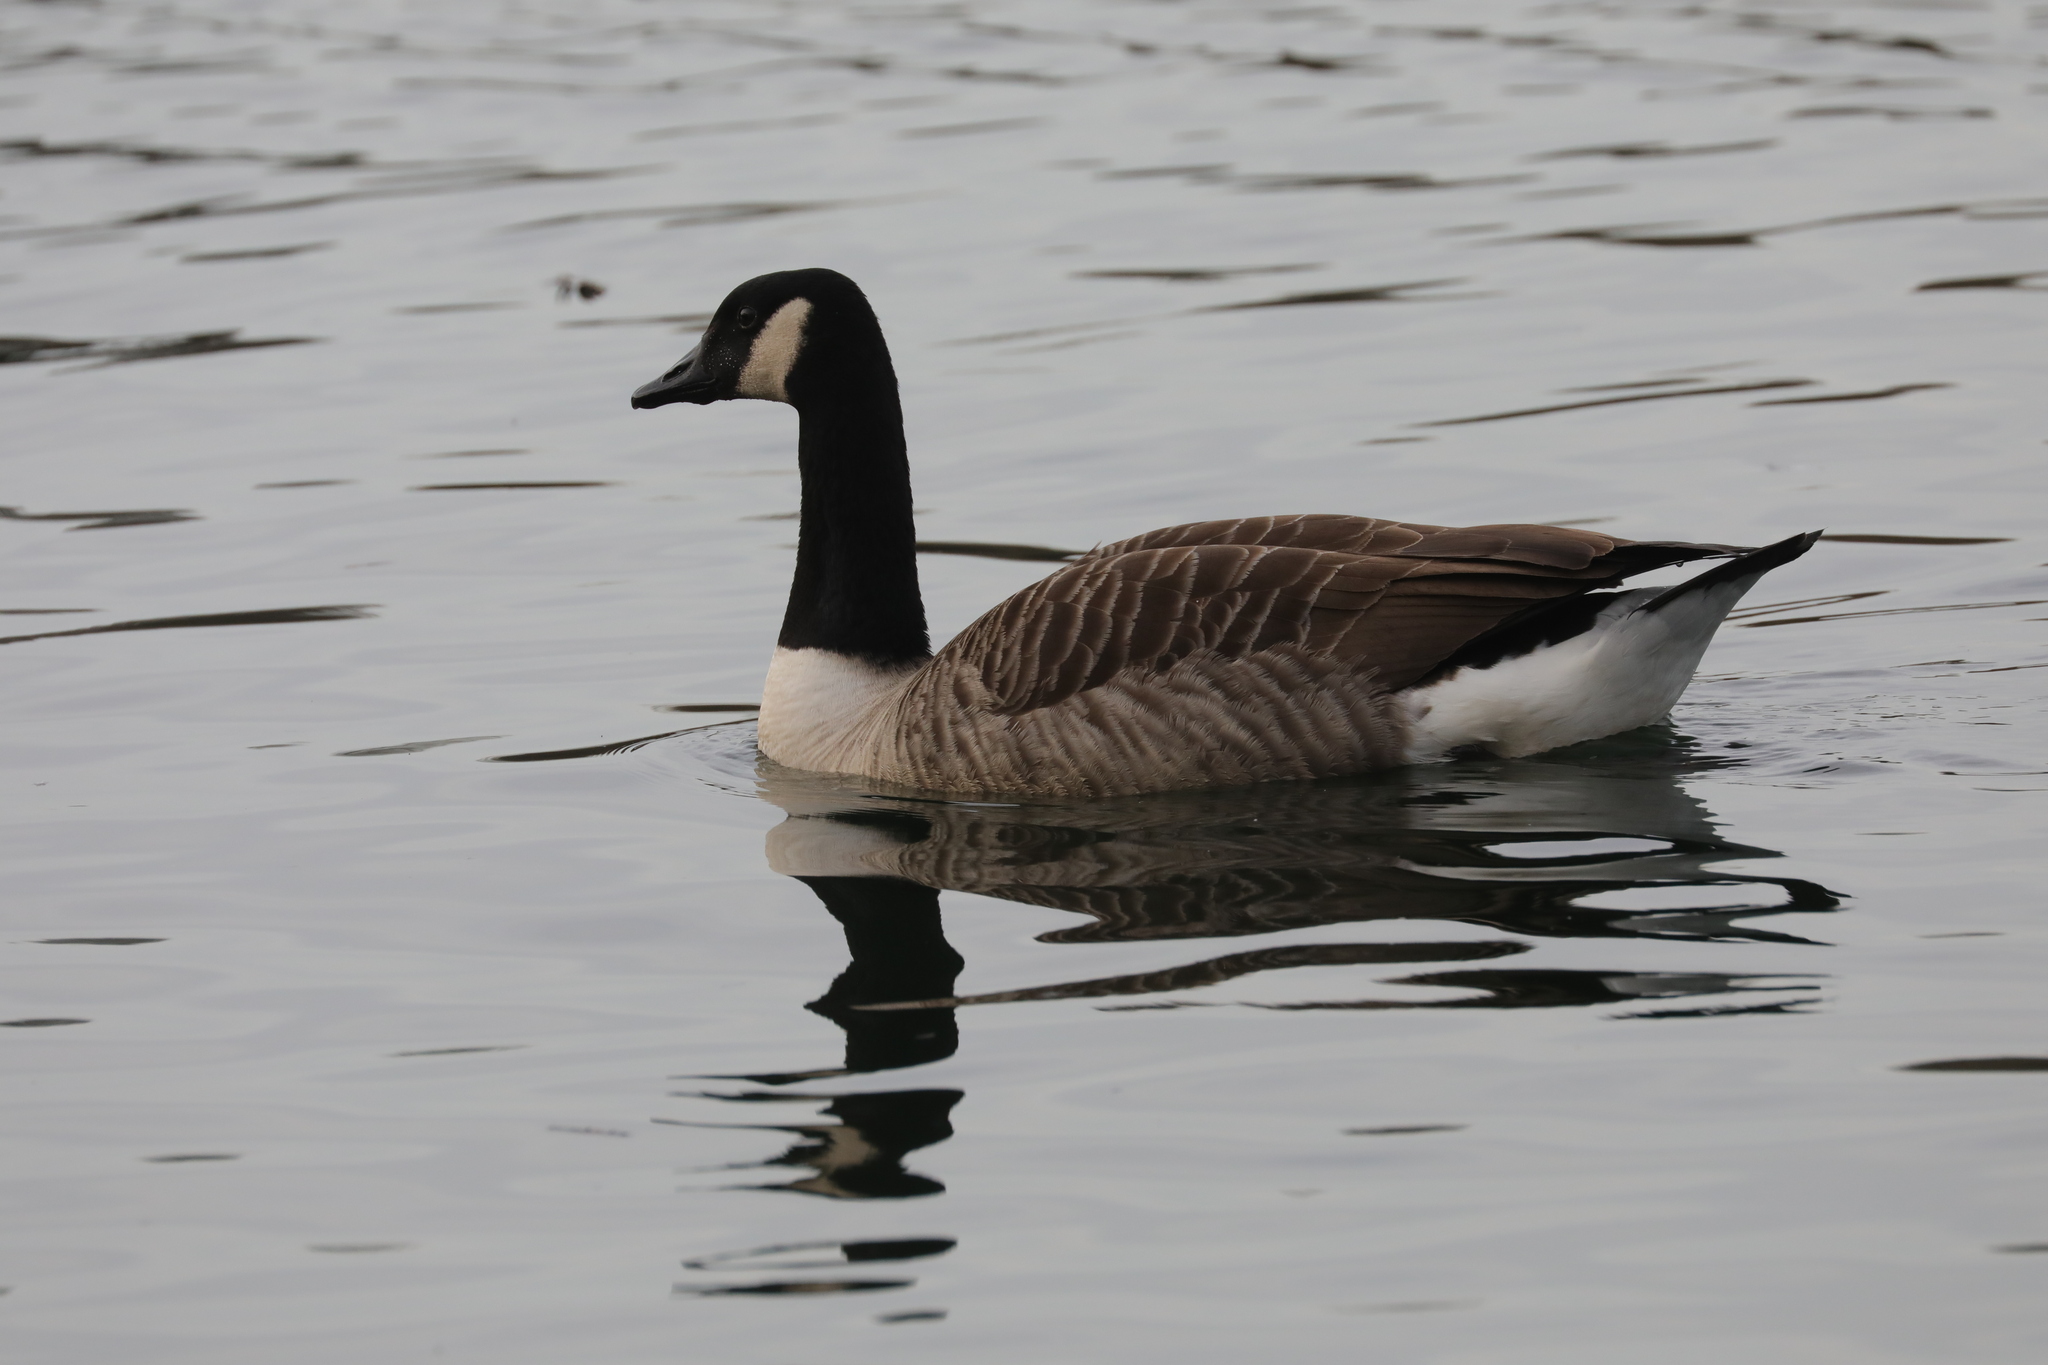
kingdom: Animalia
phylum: Chordata
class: Aves
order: Anseriformes
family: Anatidae
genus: Branta
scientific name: Branta canadensis
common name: Canada goose
